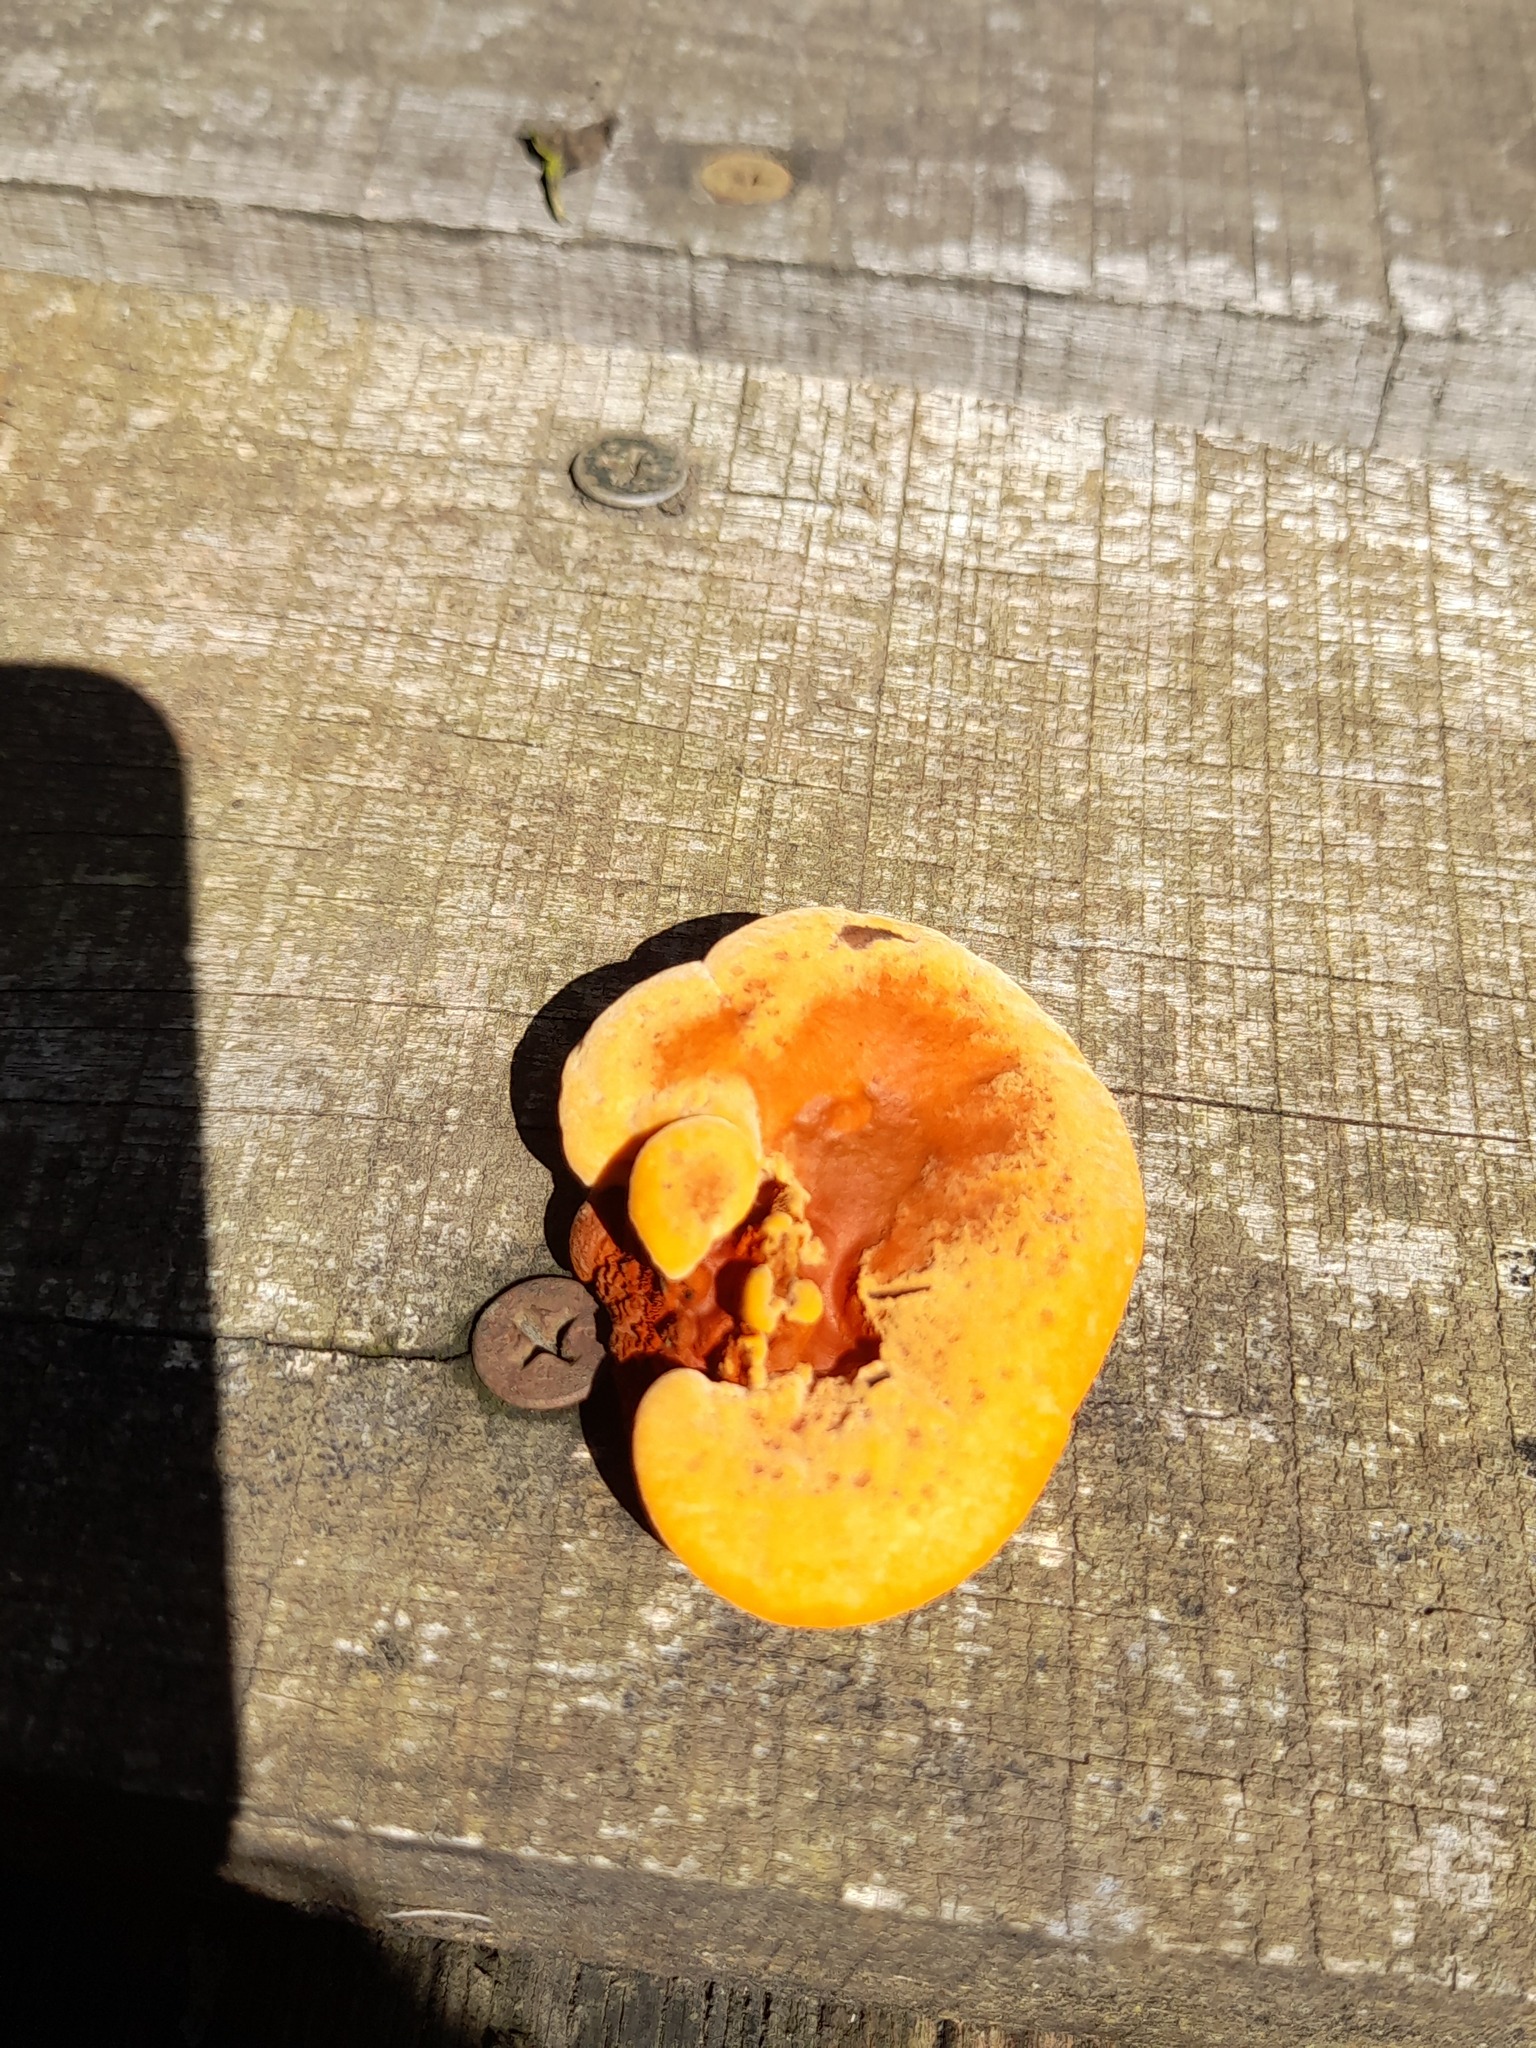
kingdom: Fungi
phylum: Basidiomycota
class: Agaricomycetes
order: Polyporales
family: Polyporaceae
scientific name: Polyporaceae
